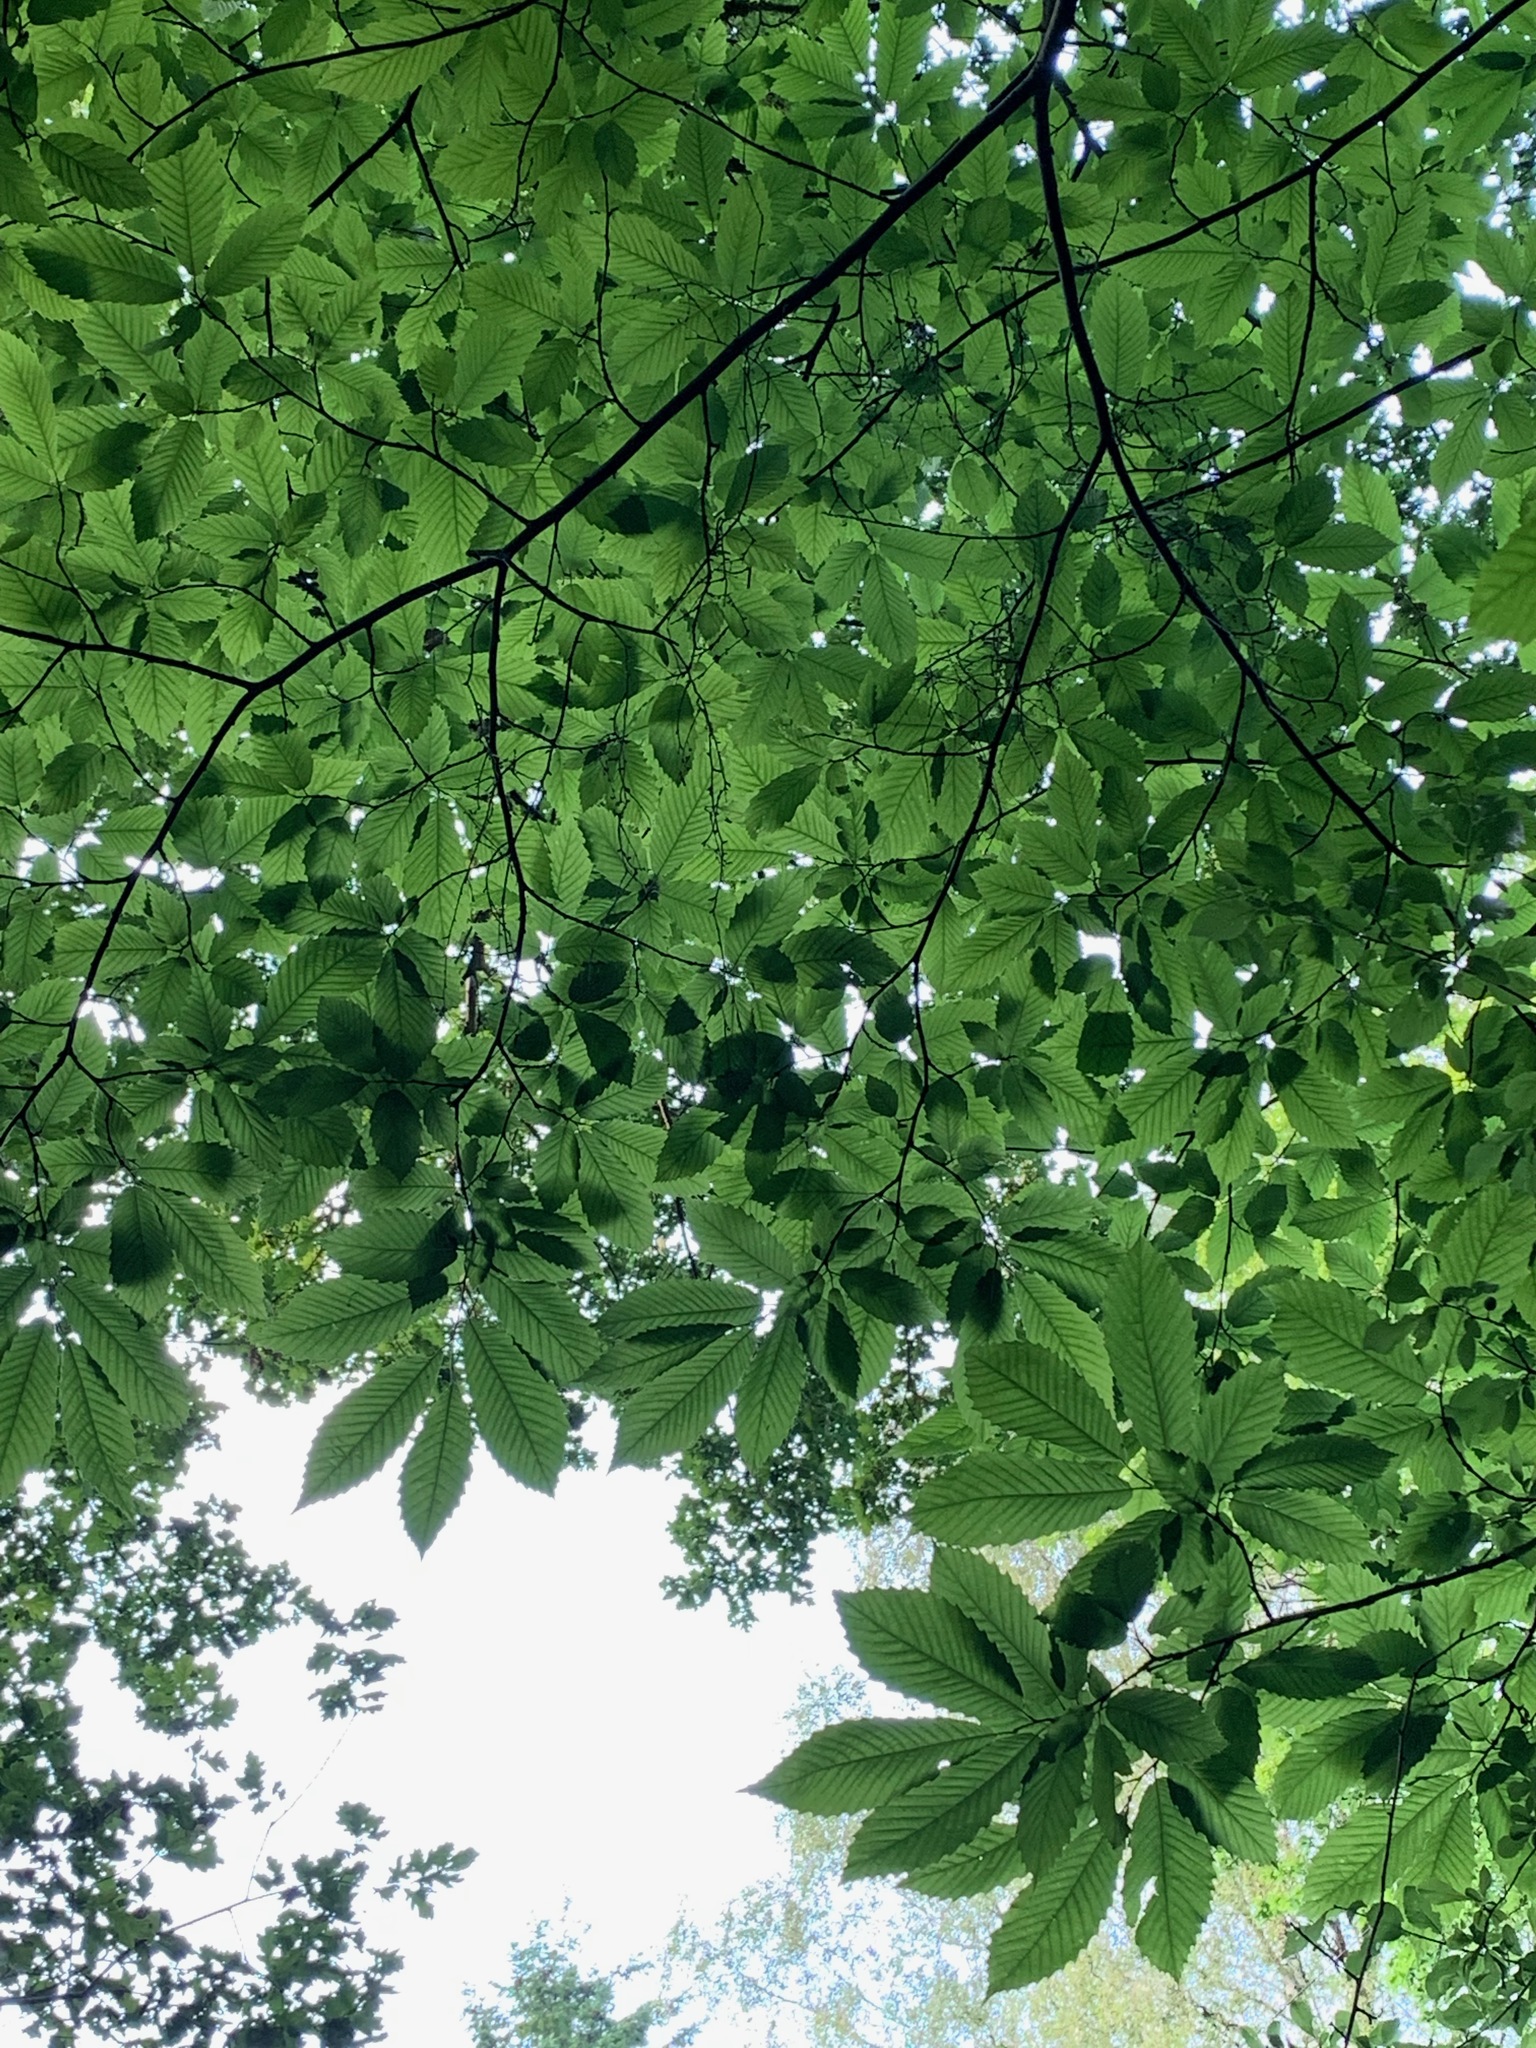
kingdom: Plantae
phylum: Tracheophyta
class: Magnoliopsida
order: Fagales
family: Fagaceae
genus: Castanea
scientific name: Castanea sativa
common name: Sweet chestnut
